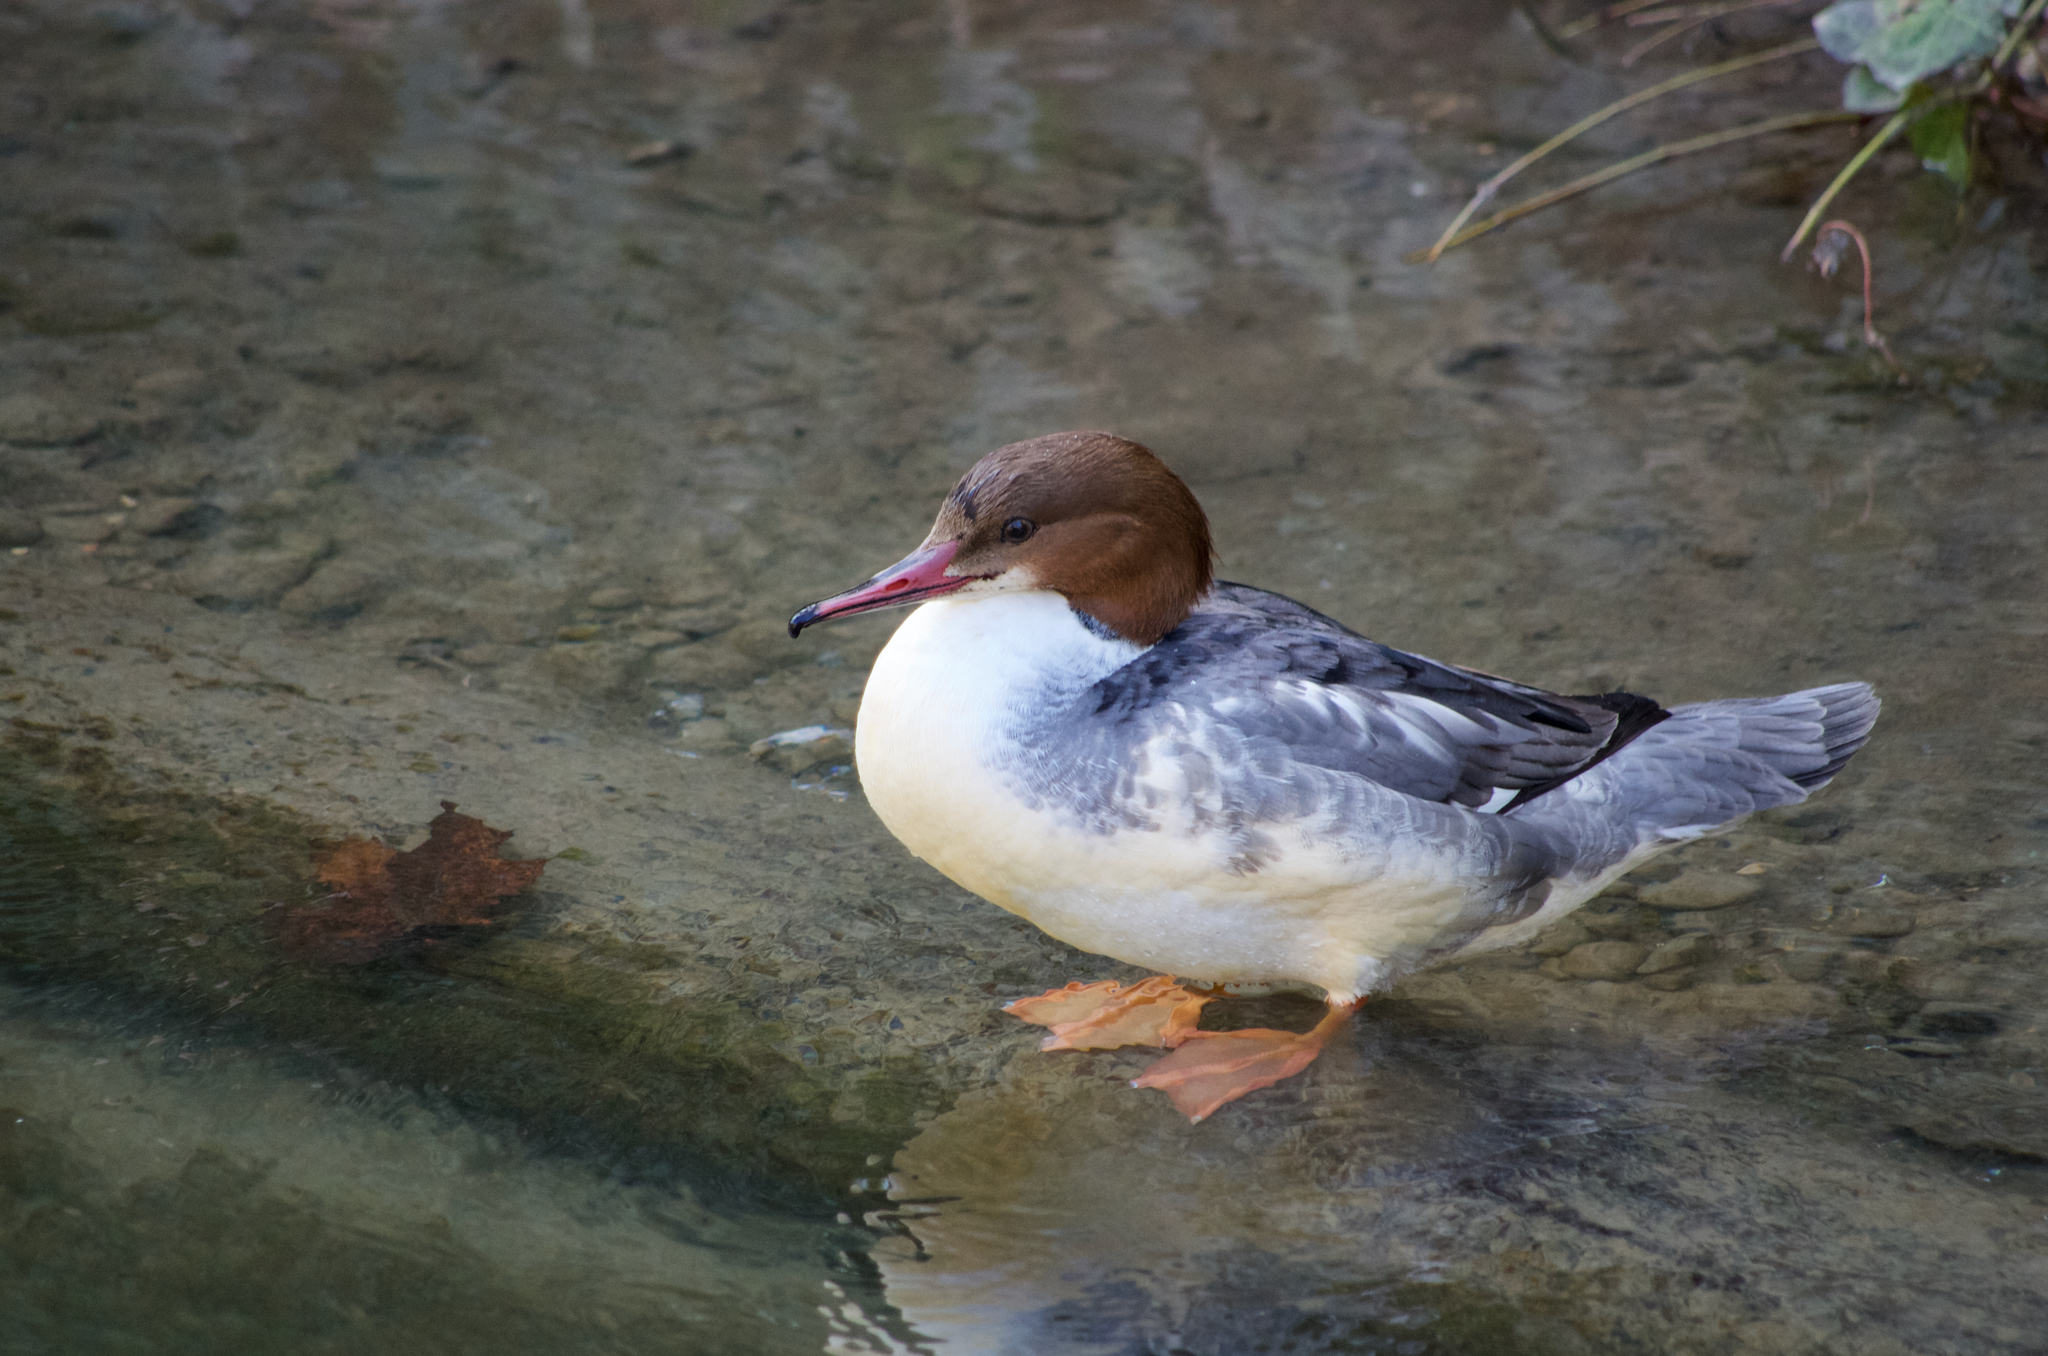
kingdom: Animalia
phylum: Chordata
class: Aves
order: Anseriformes
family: Anatidae
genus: Mergus
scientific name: Mergus merganser
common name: Common merganser
